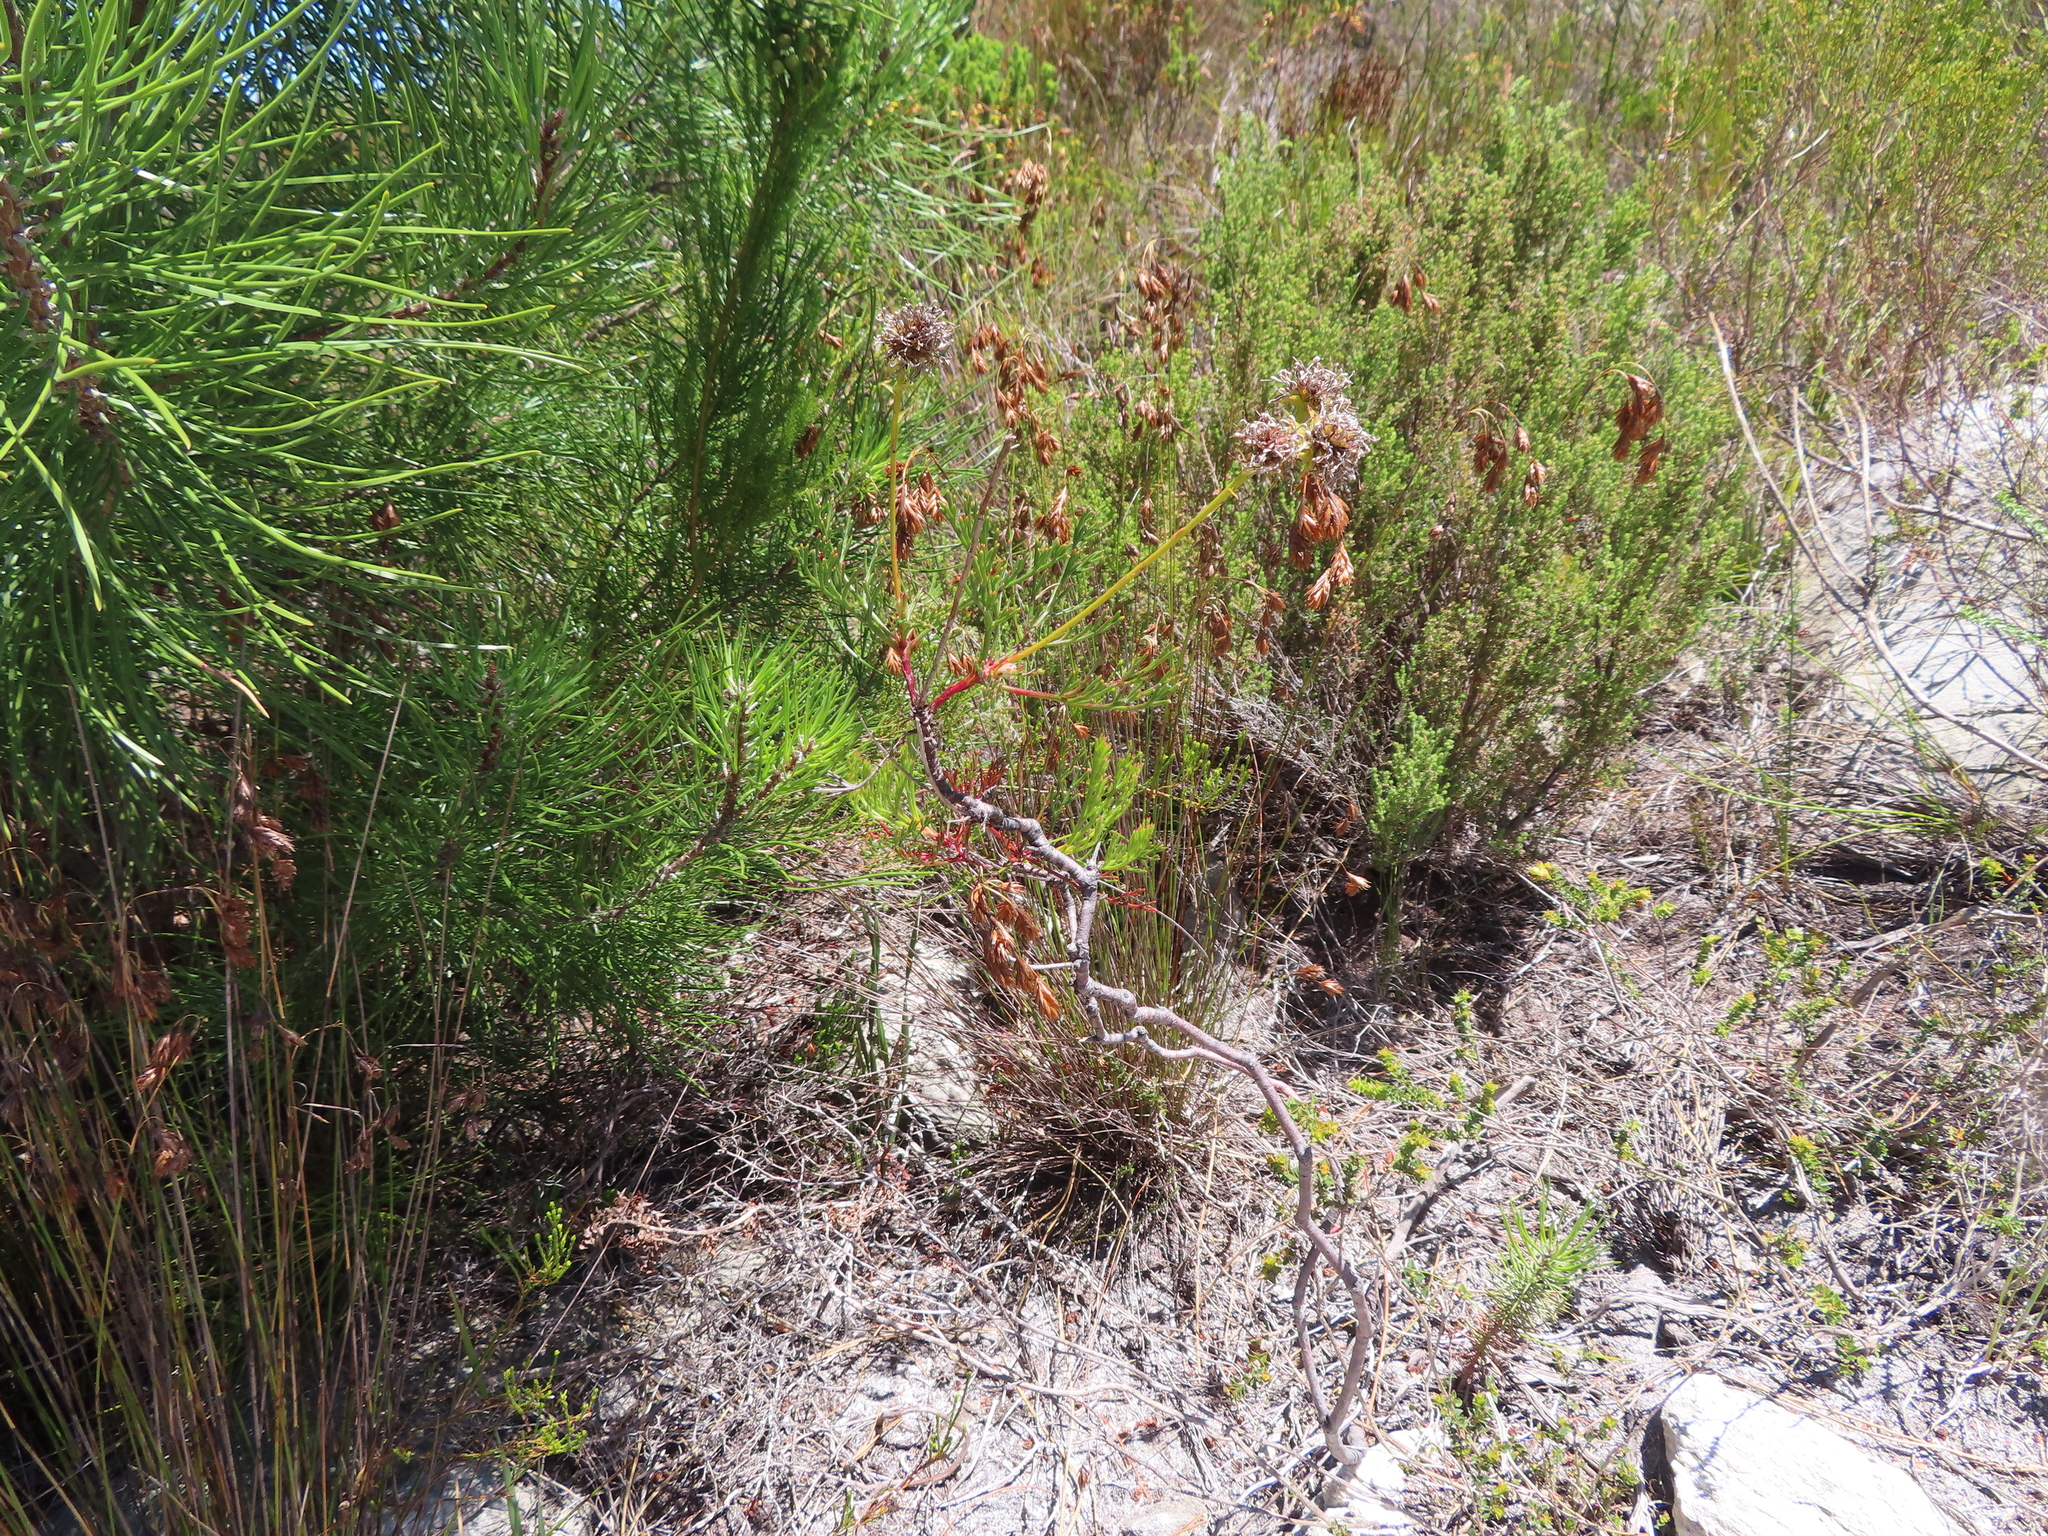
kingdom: Plantae
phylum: Tracheophyta
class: Magnoliopsida
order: Proteales
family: Proteaceae
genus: Serruria
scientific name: Serruria elongata
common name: Long-stalk spiderhead
